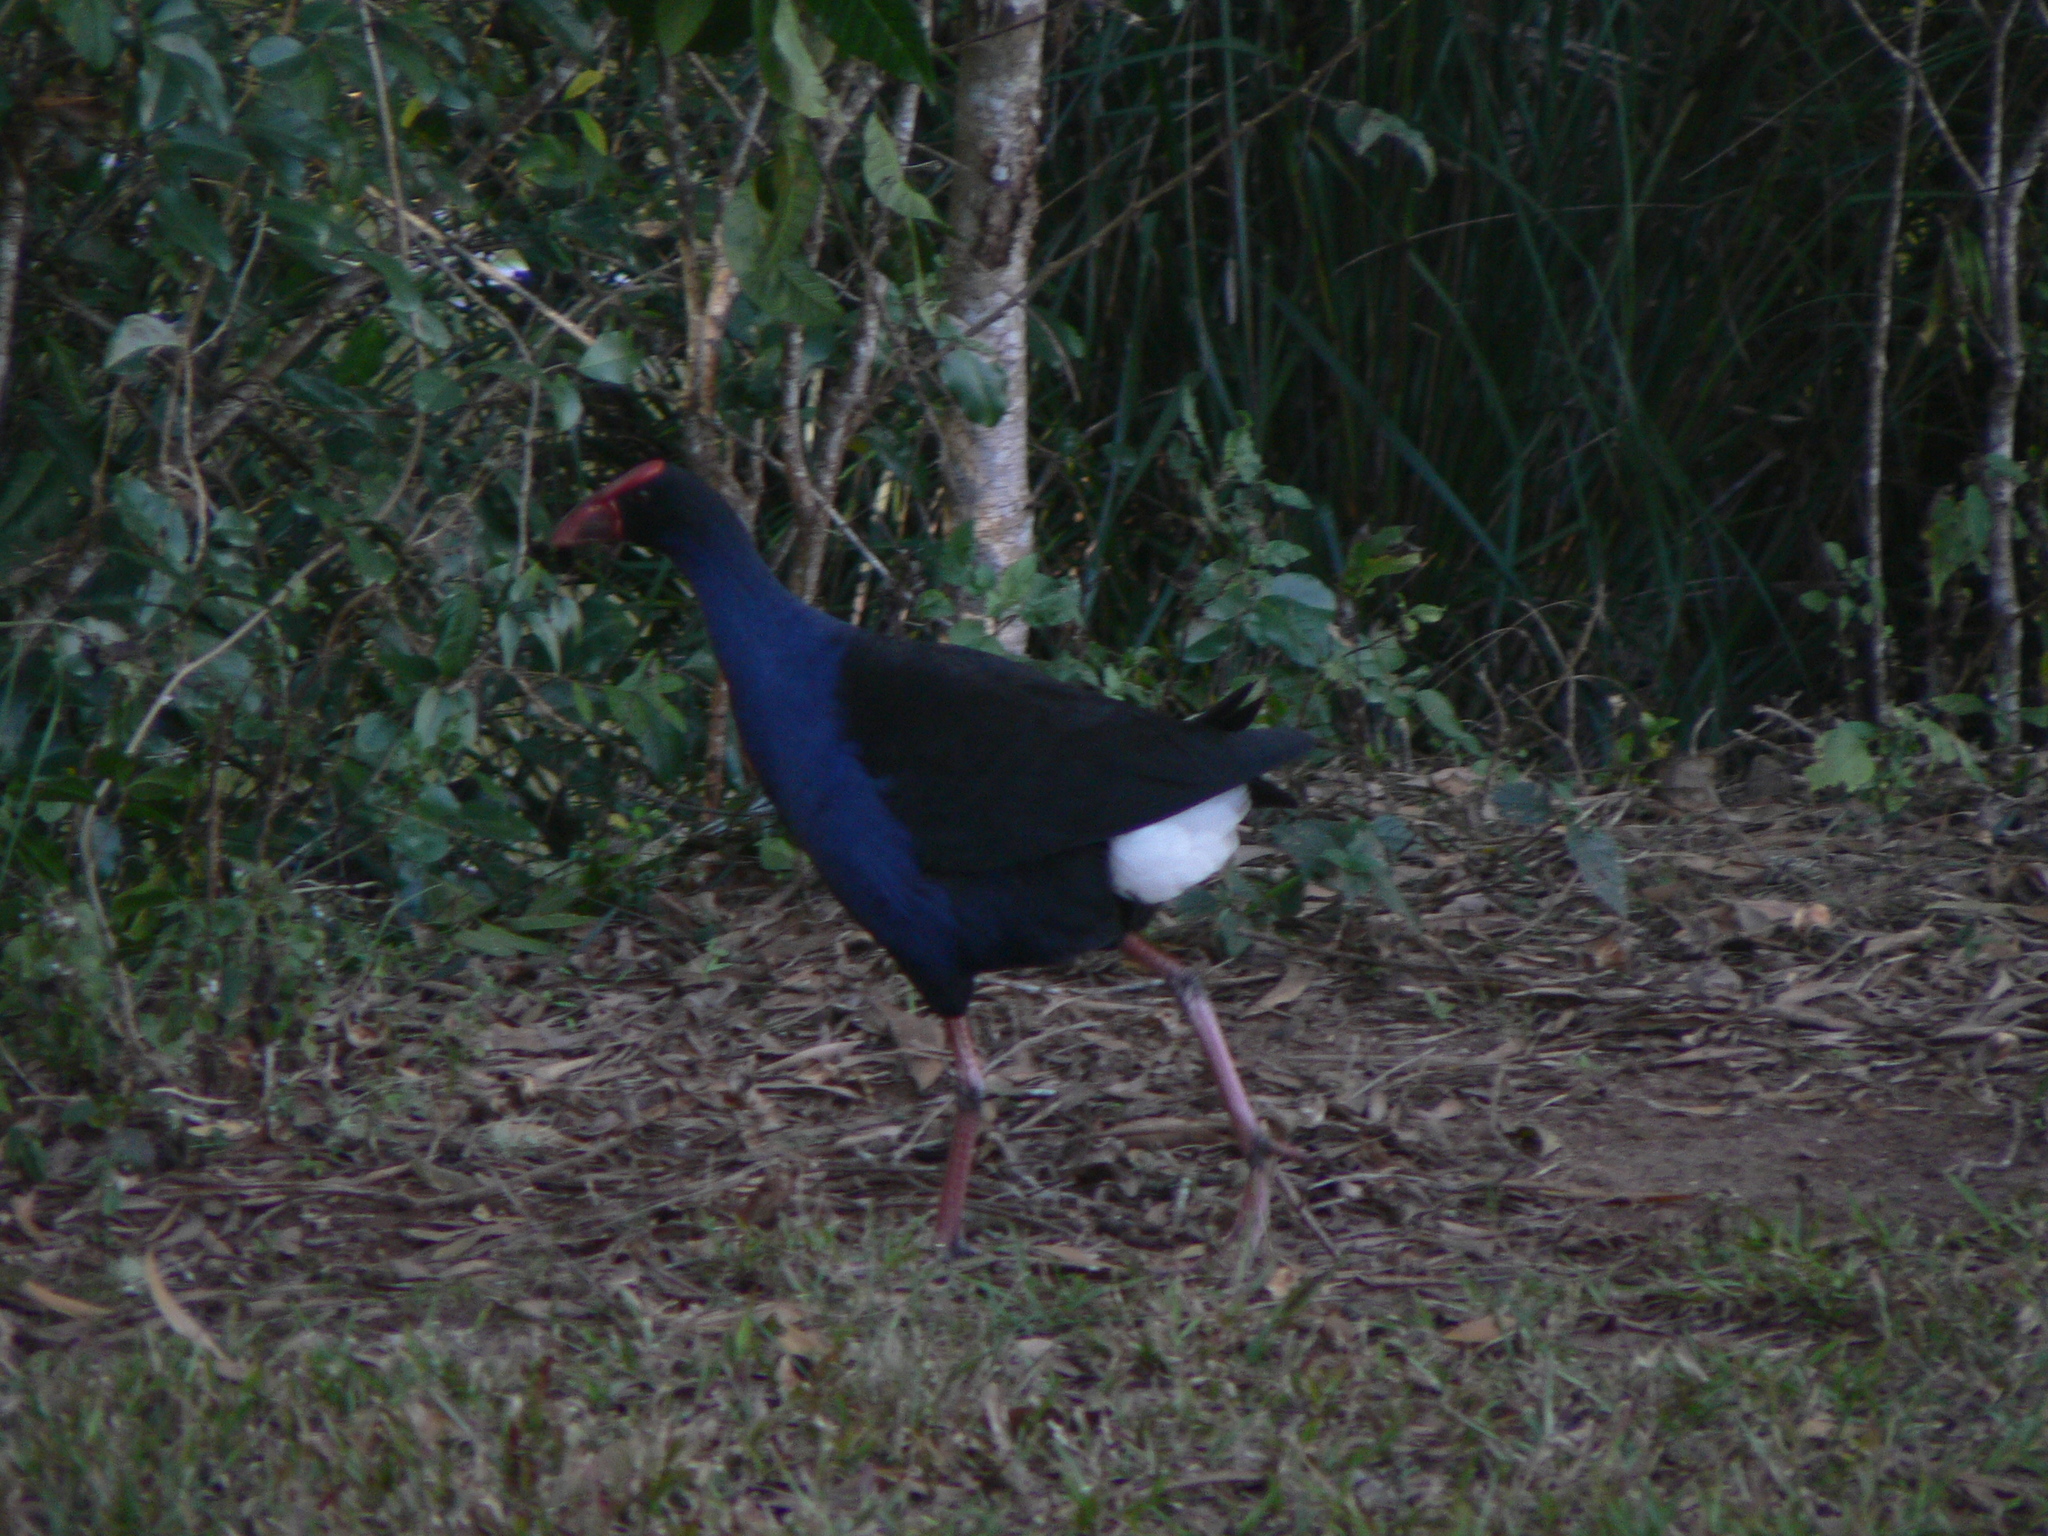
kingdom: Animalia
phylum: Chordata
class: Aves
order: Gruiformes
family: Rallidae
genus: Porphyrio
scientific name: Porphyrio melanotus
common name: Australasian swamphen
